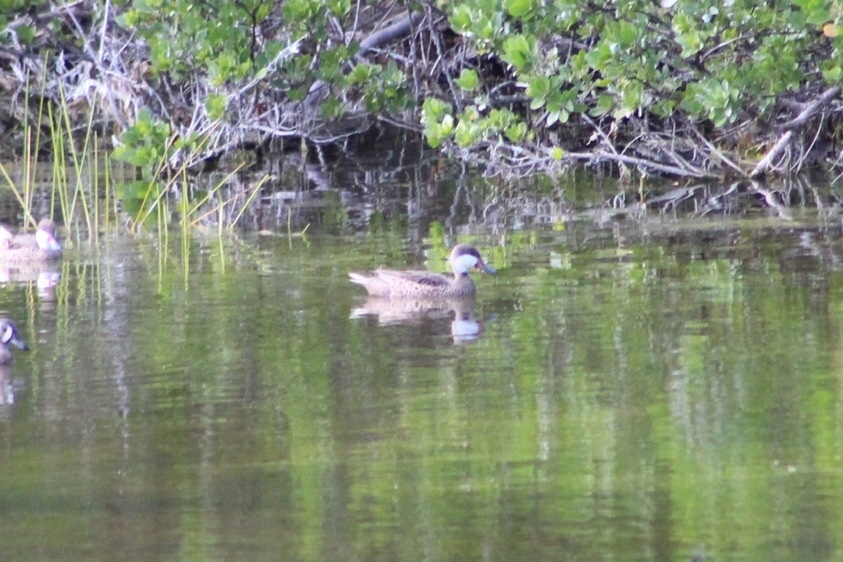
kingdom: Animalia
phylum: Chordata
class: Aves
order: Anseriformes
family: Anatidae
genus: Anas
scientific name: Anas bahamensis
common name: White-cheeked pintail
